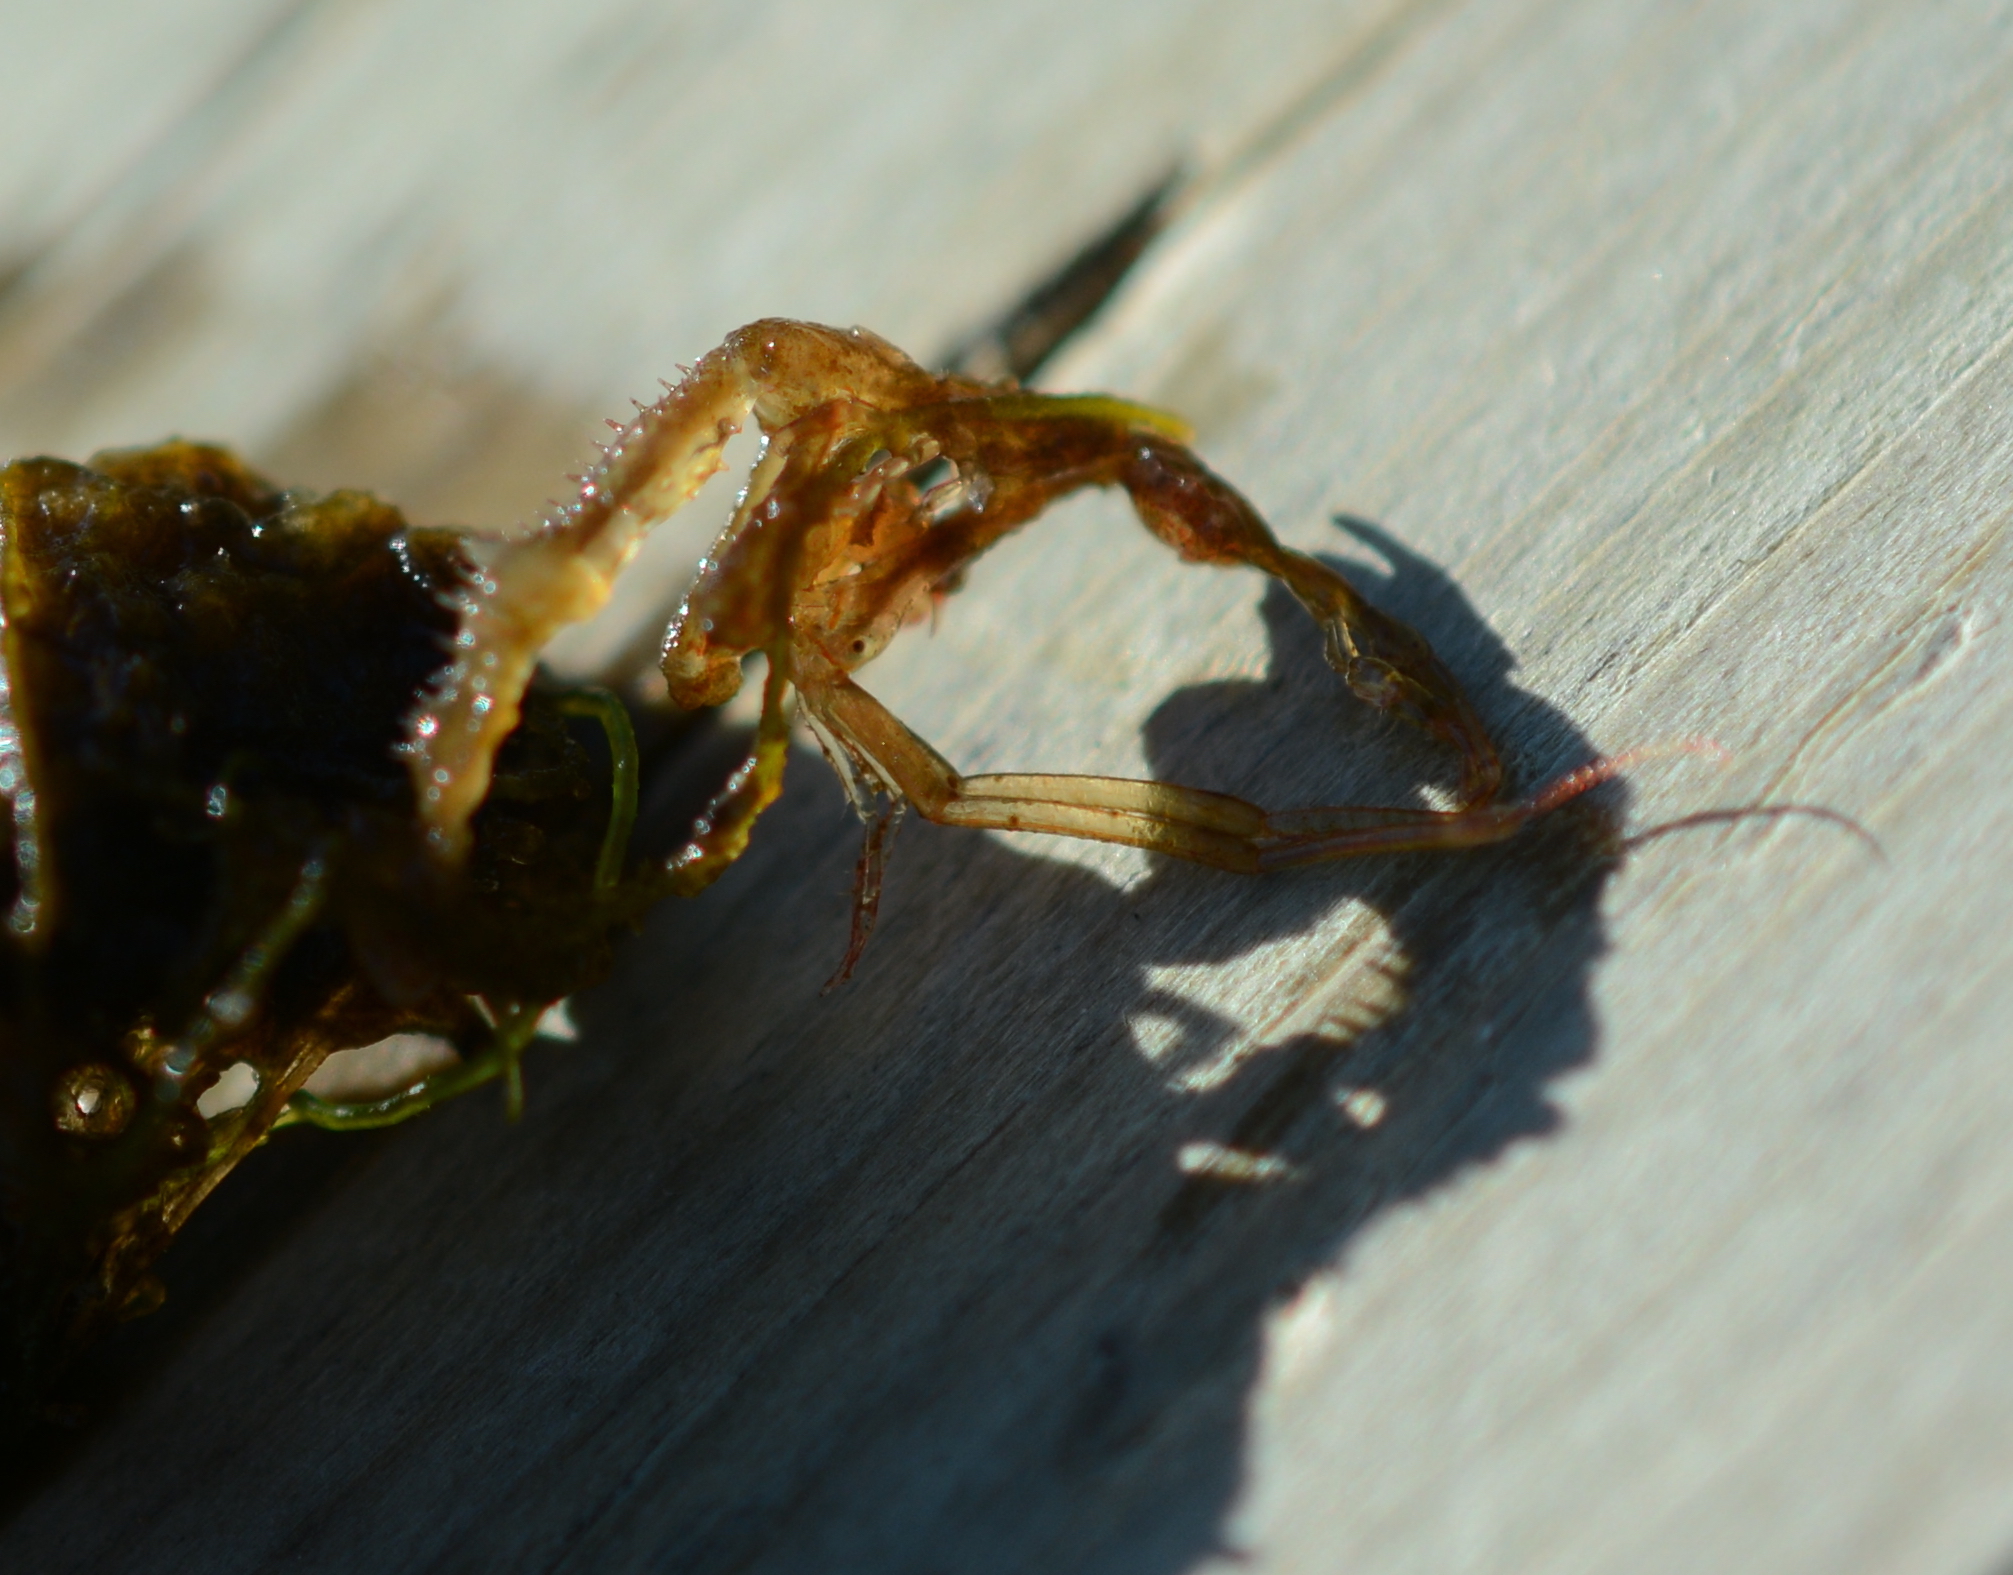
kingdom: Animalia
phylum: Arthropoda
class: Malacostraca
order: Amphipoda
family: Caprellidae
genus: Caprella
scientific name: Caprella mutica
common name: Japanese skeleton shrimp
